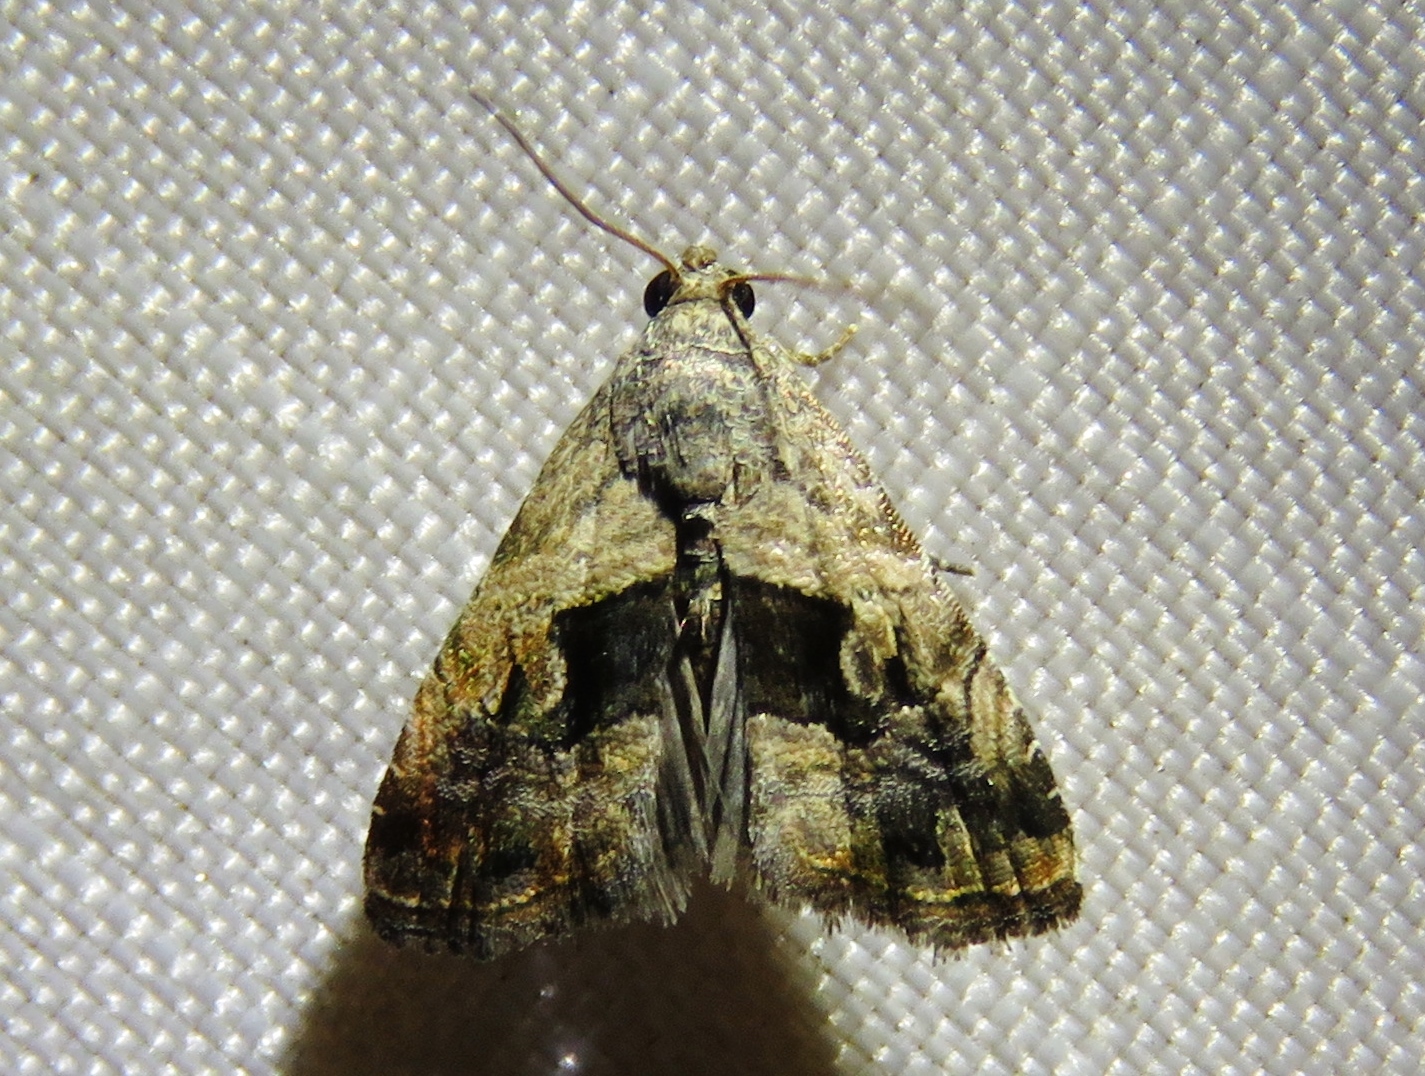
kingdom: Animalia
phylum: Arthropoda
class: Insecta
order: Lepidoptera
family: Noctuidae
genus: Tripudia
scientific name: Tripudia quadrifera
